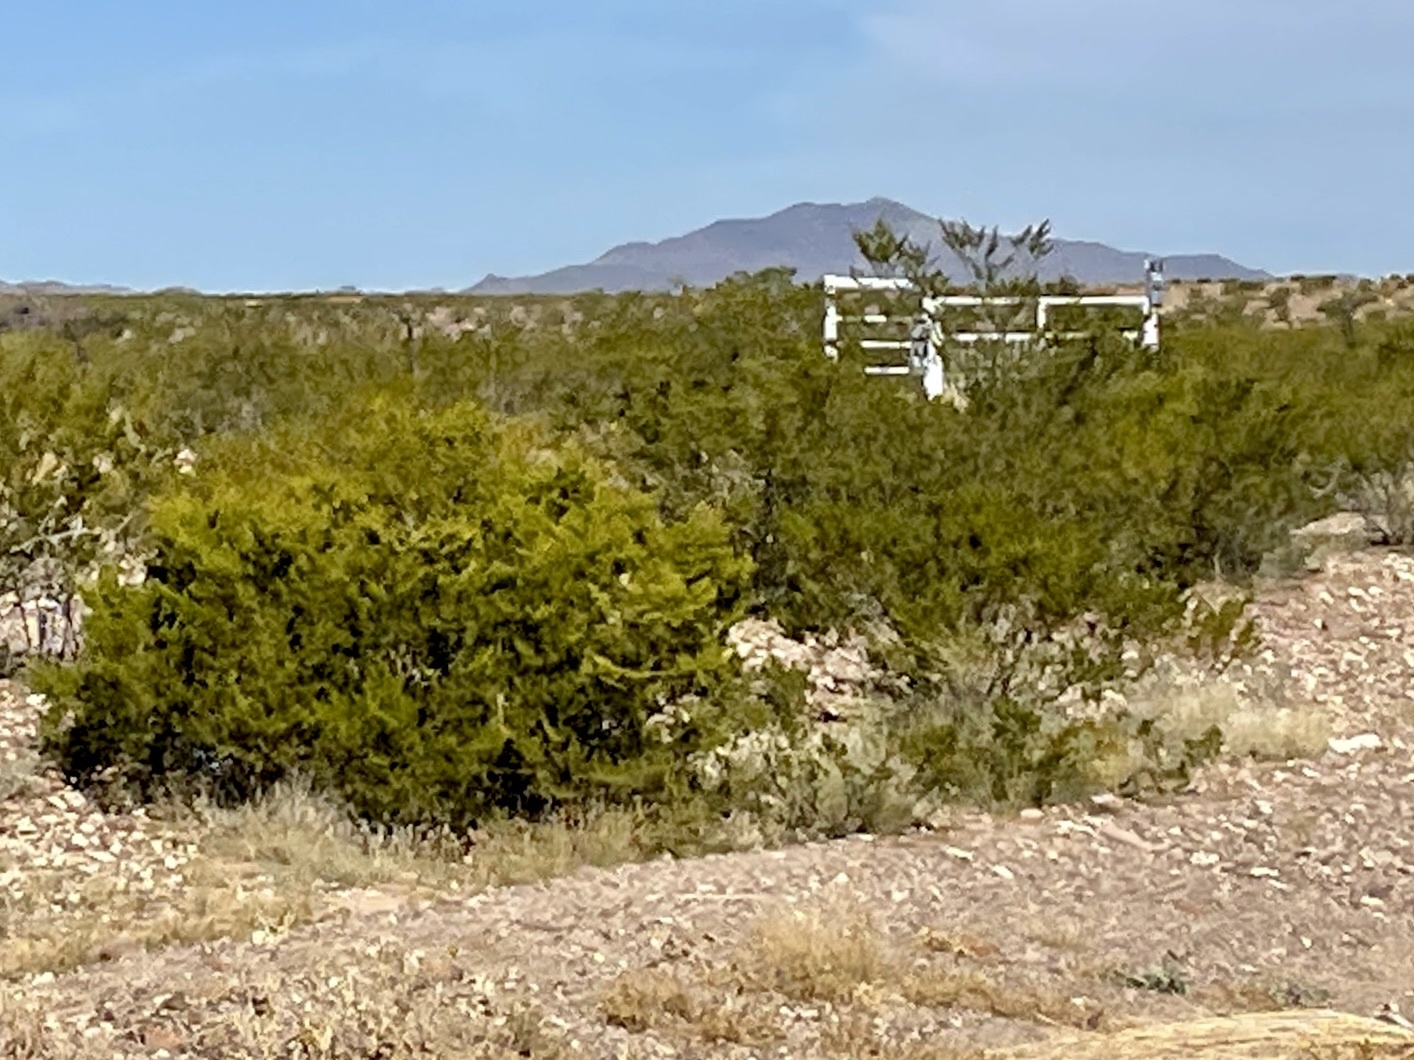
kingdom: Plantae
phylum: Tracheophyta
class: Magnoliopsida
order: Zygophyllales
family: Zygophyllaceae
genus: Larrea
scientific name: Larrea tridentata
